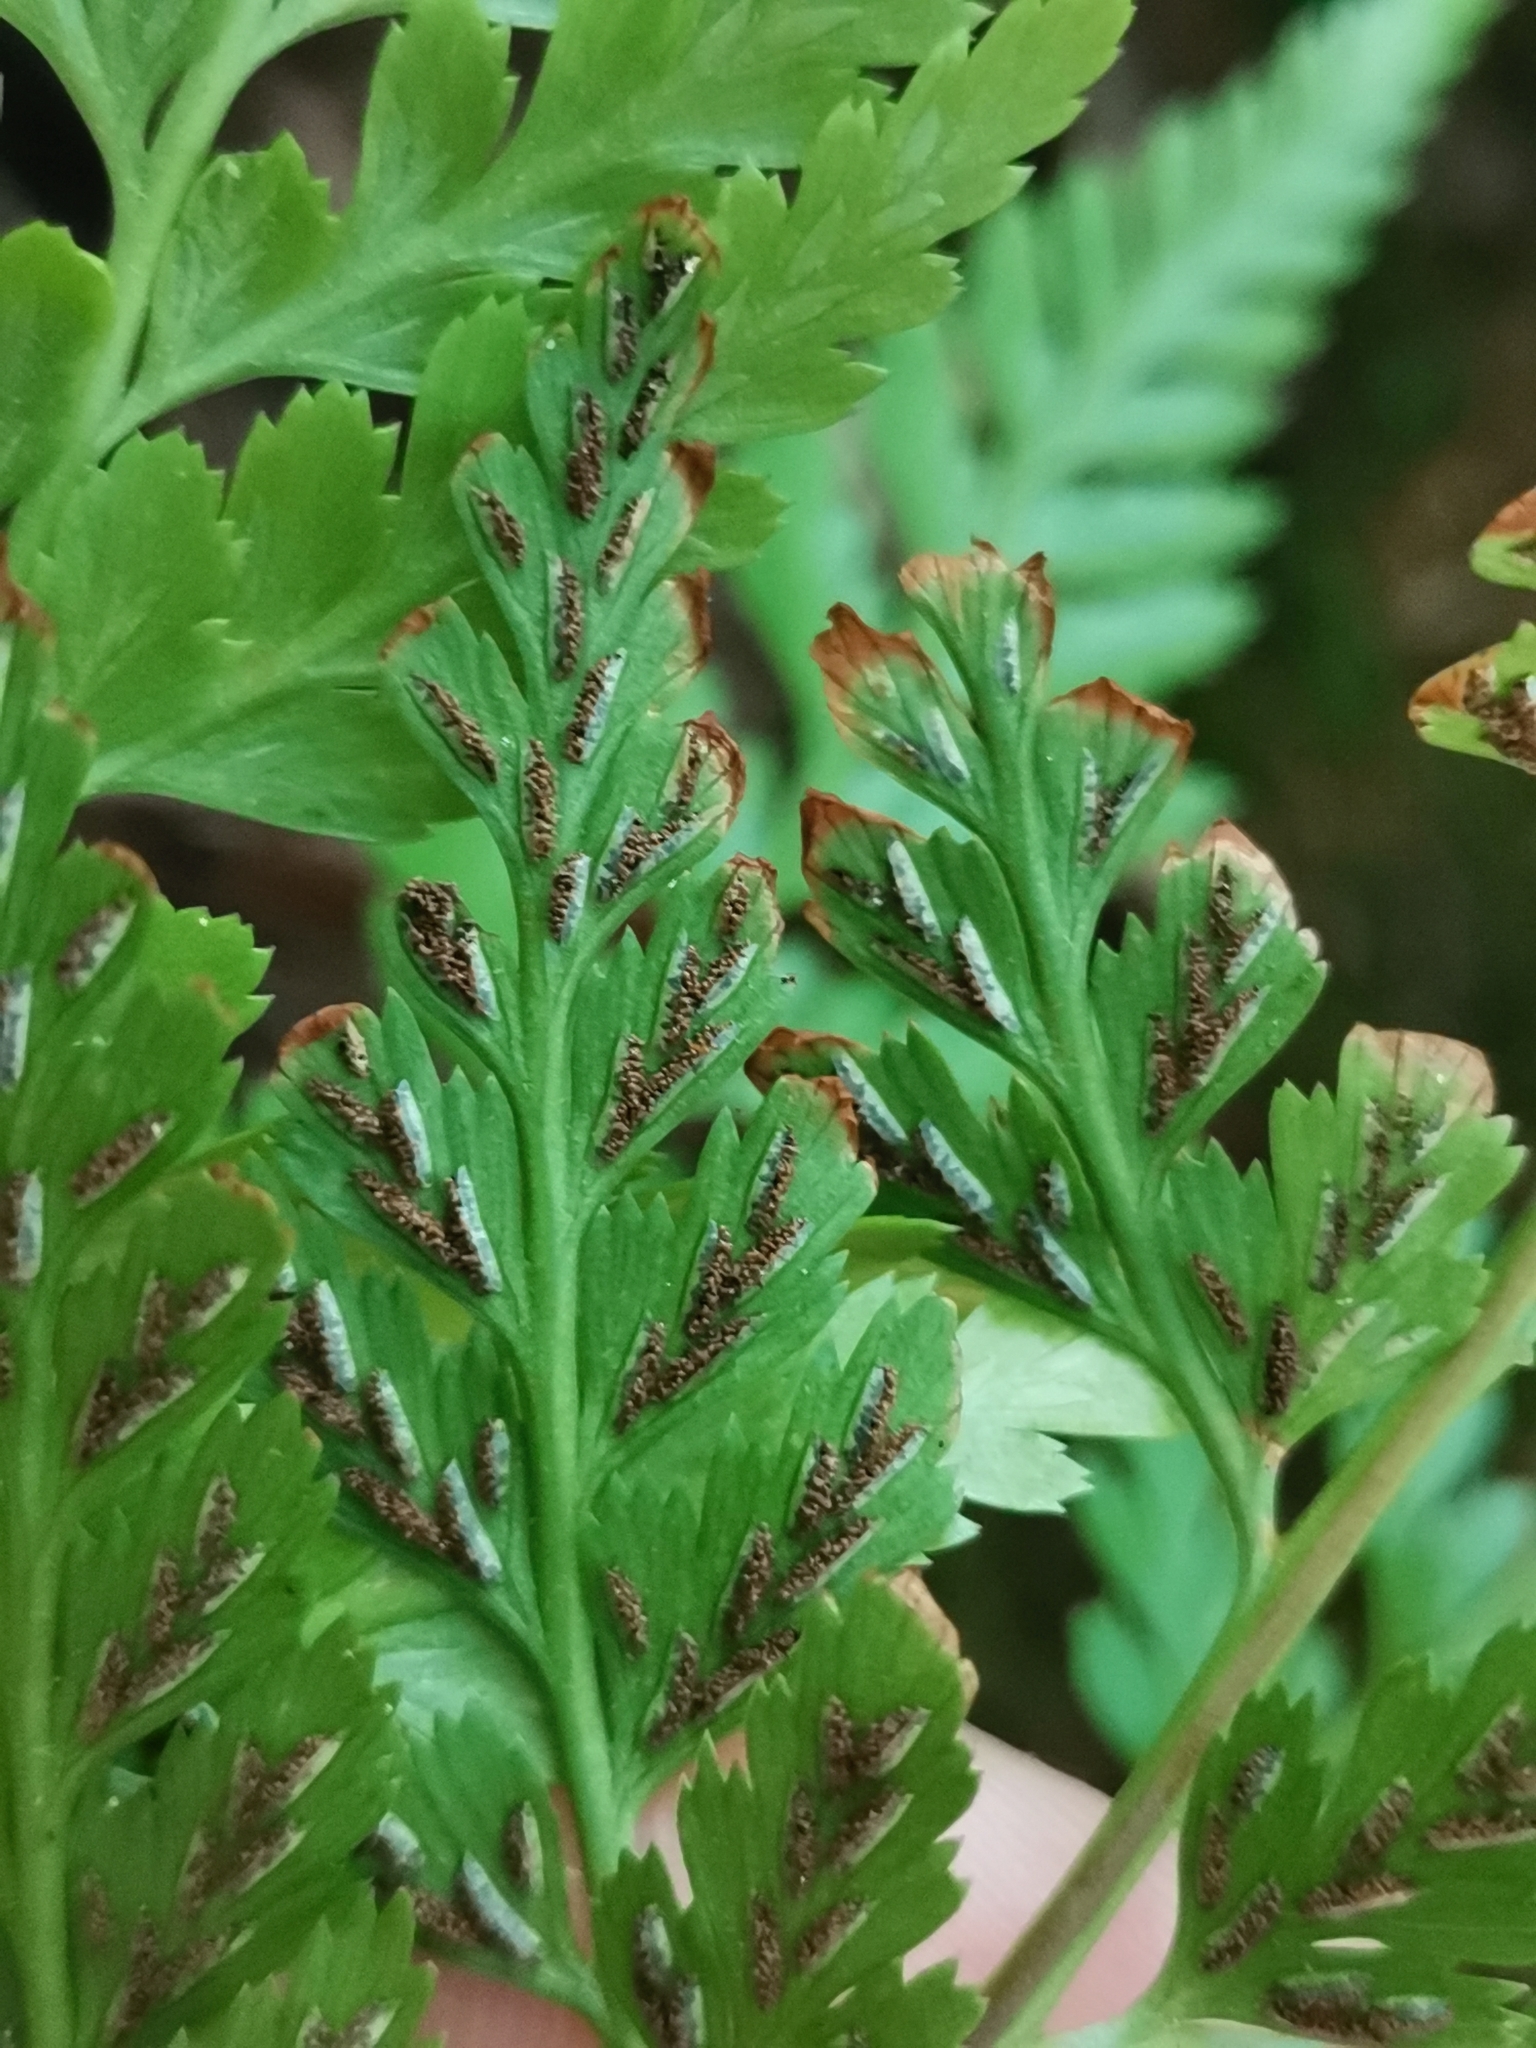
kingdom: Plantae
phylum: Tracheophyta
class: Polypodiopsida
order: Polypodiales
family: Aspleniaceae
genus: Asplenium
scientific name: Asplenium onopteris
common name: Irish spleenwort
